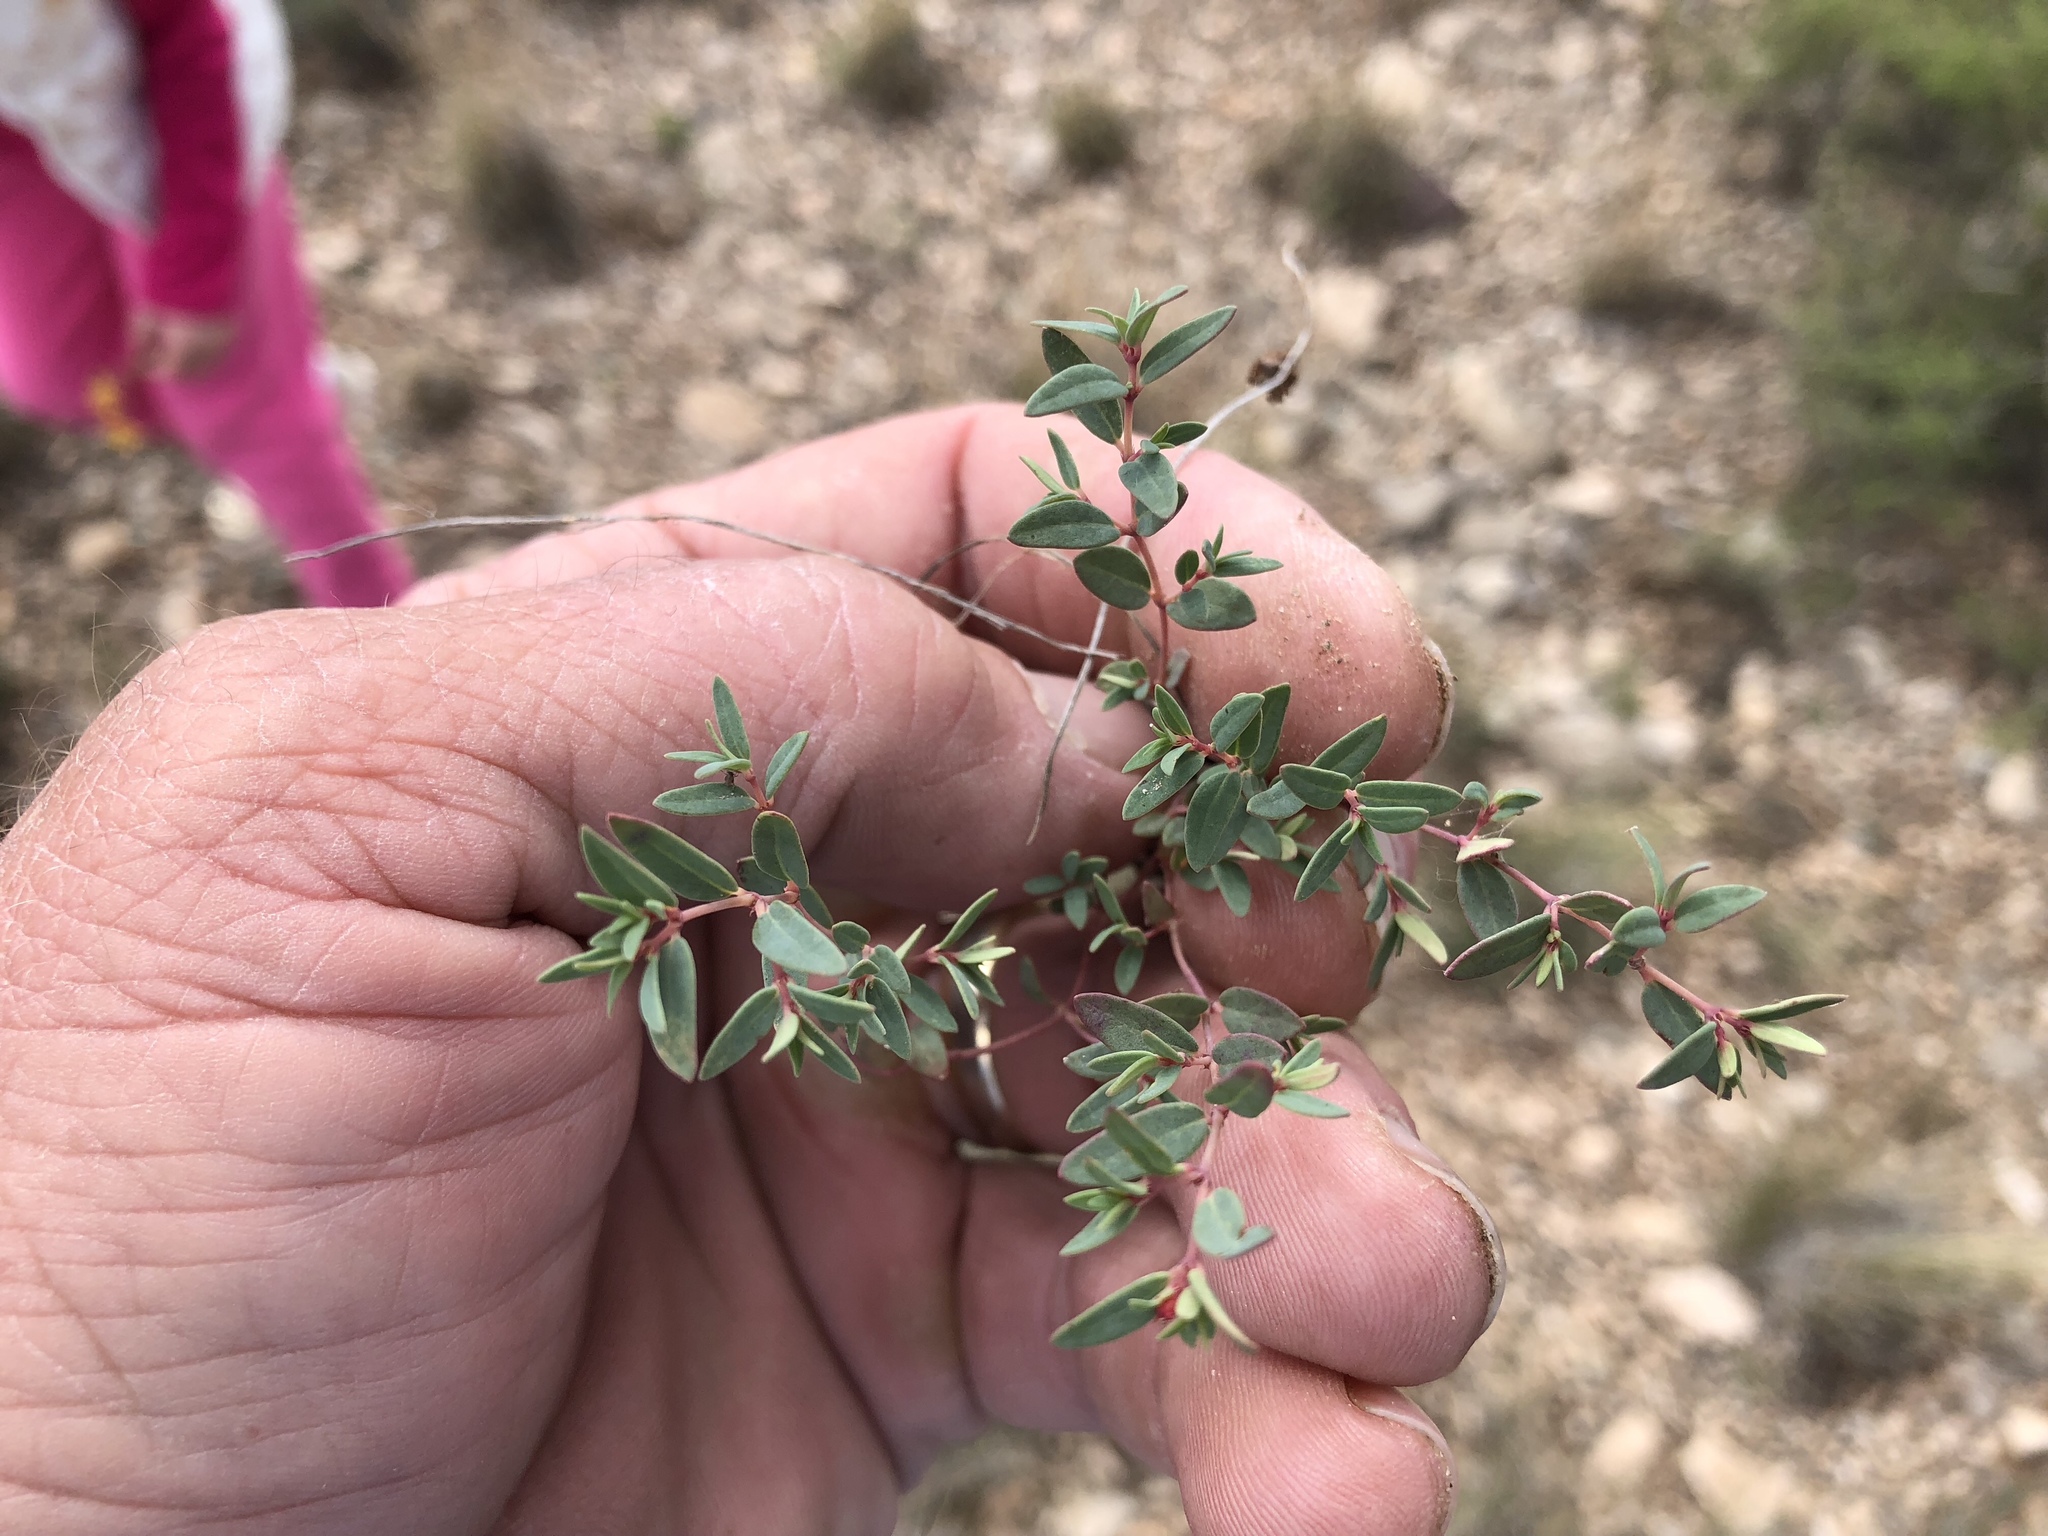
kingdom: Plantae
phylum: Tracheophyta
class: Magnoliopsida
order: Malpighiales
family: Euphorbiaceae
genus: Euphorbia
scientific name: Euphorbia chaetocalyx
